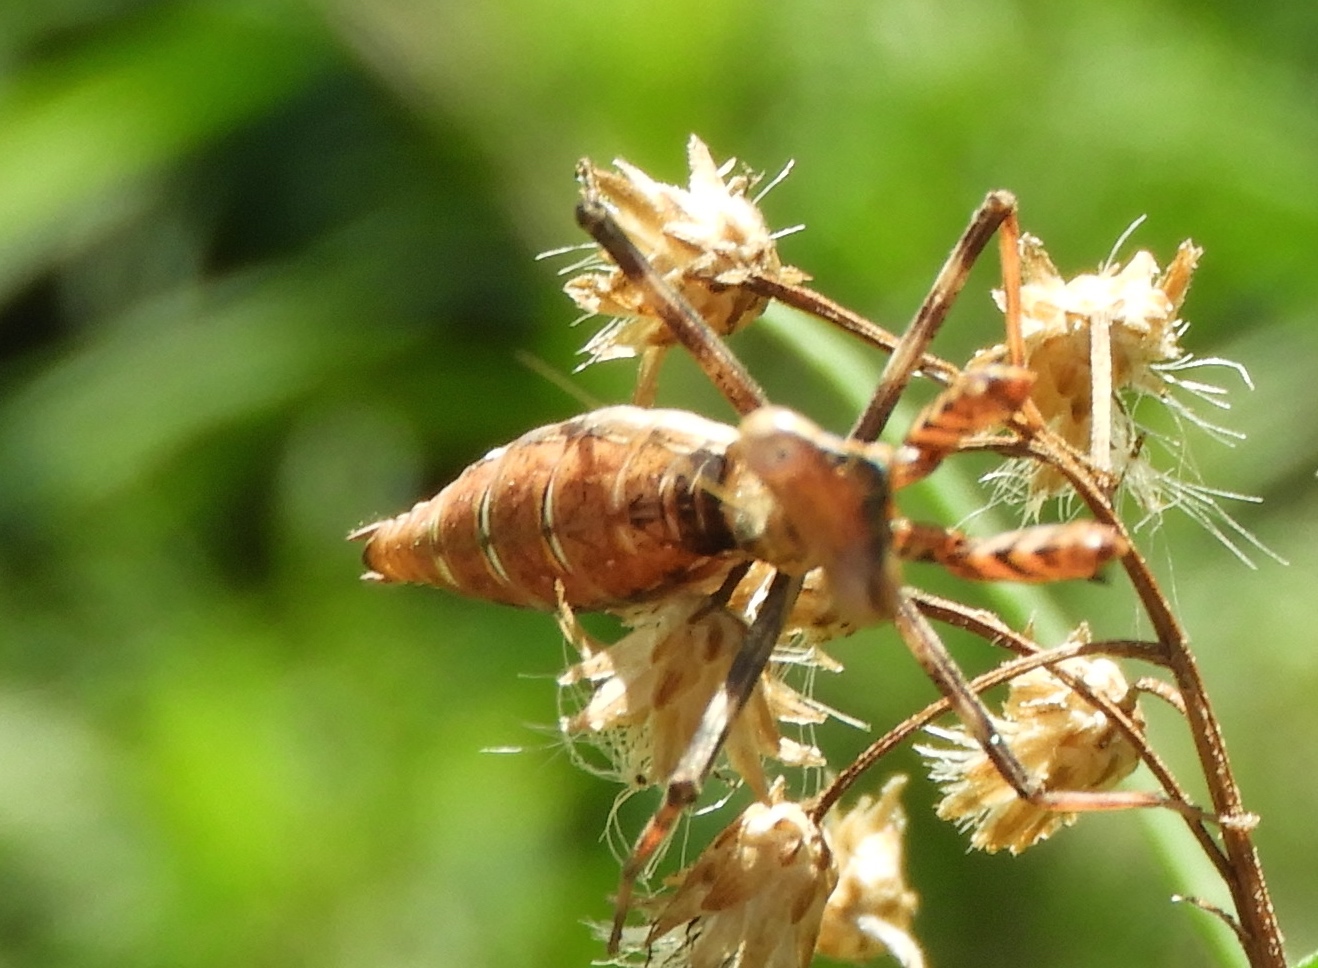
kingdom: Animalia
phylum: Arthropoda
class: Insecta
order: Mantodea
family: Mantidae
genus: Stagmomantis
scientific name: Stagmomantis limbata
